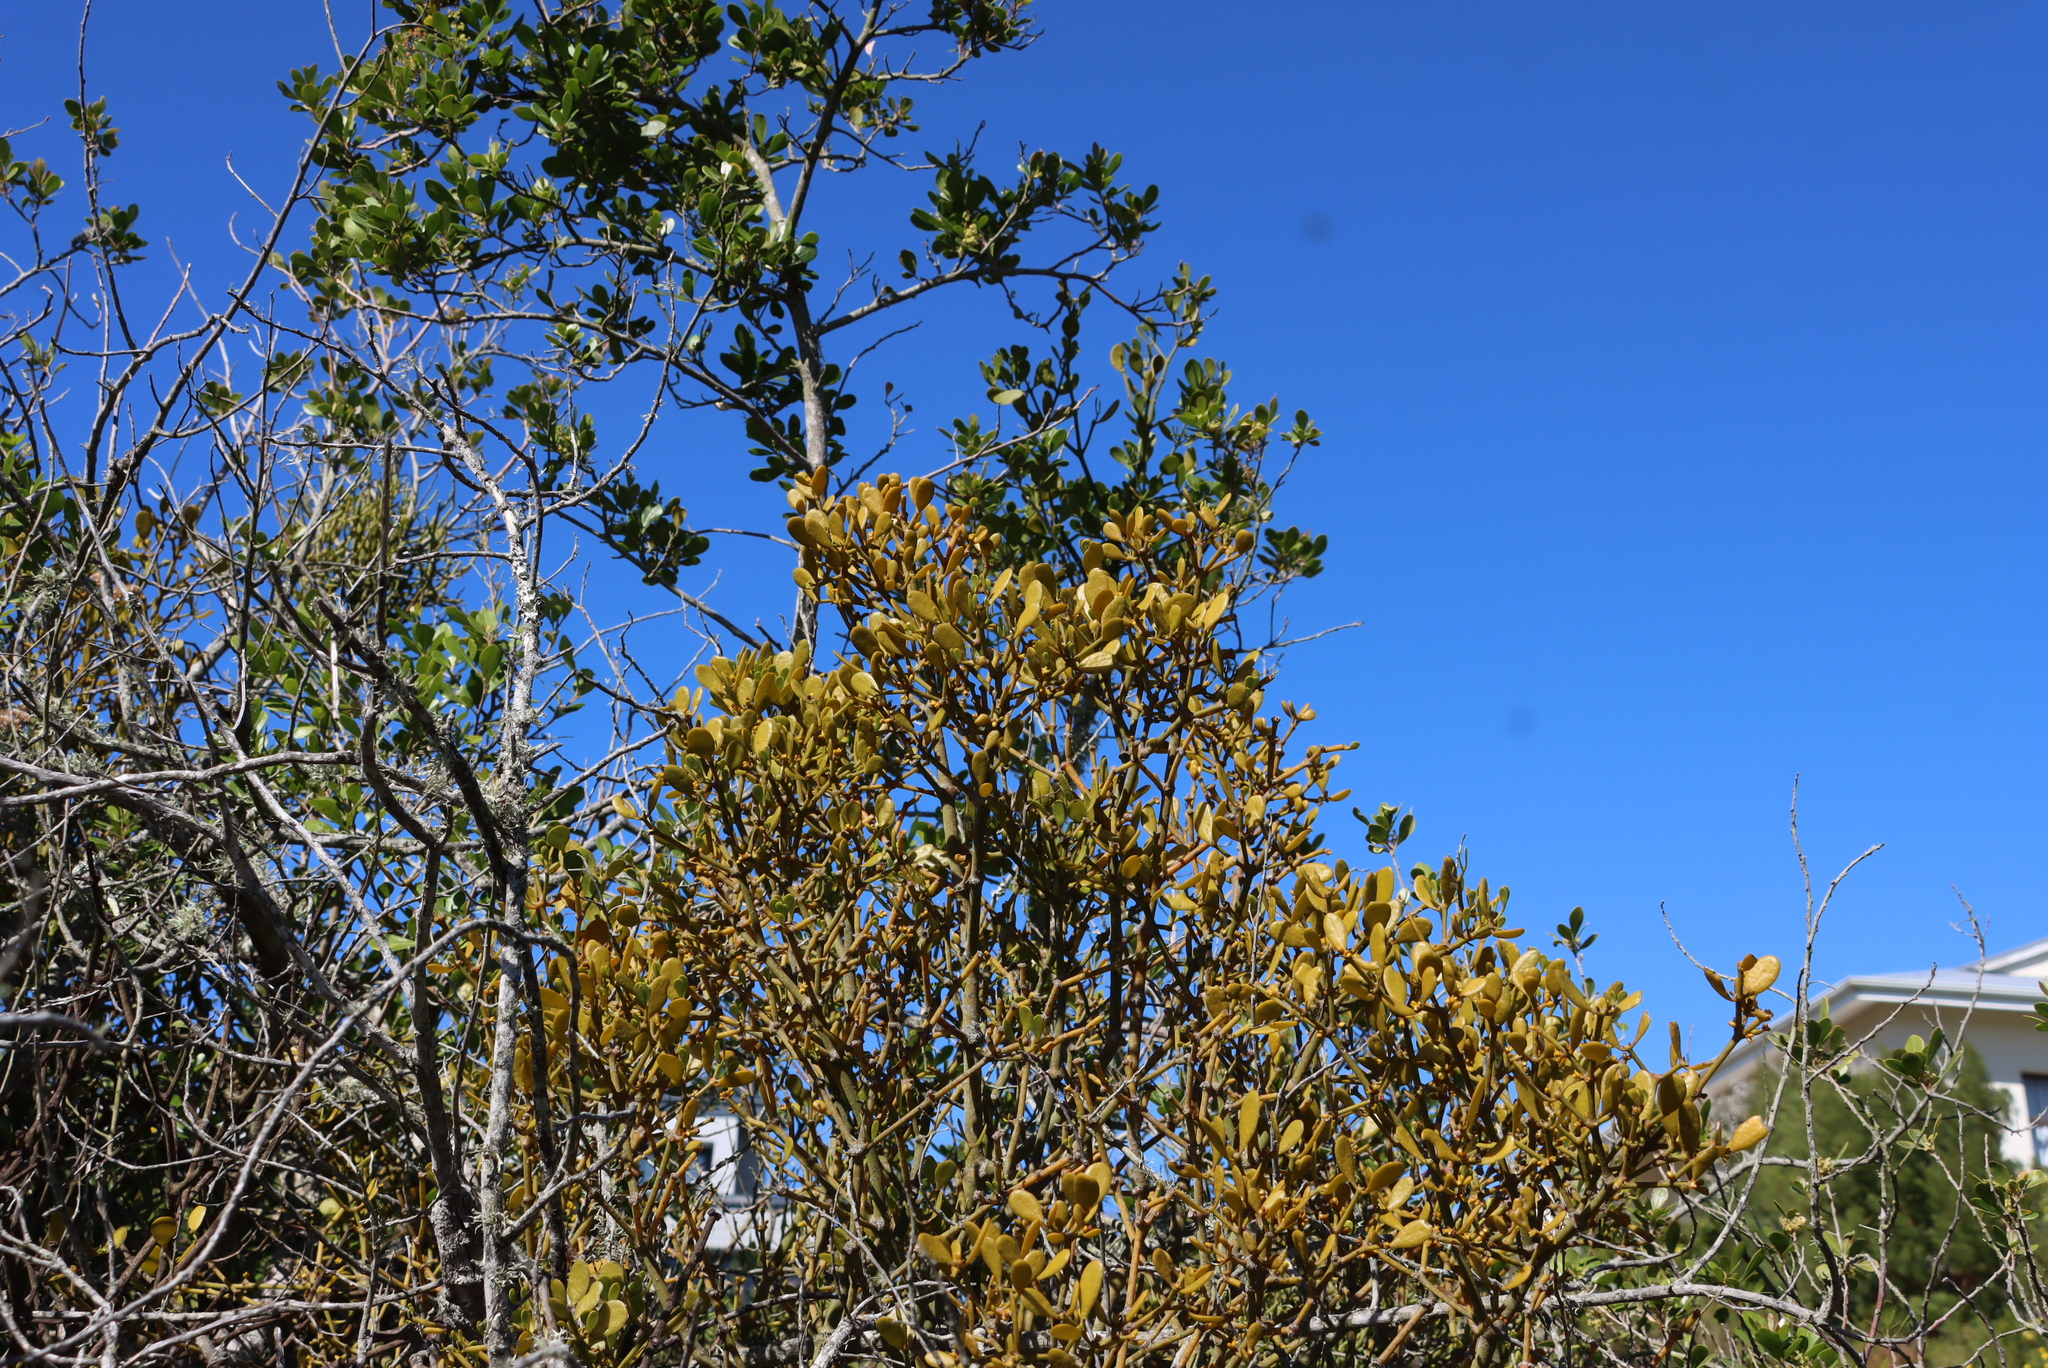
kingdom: Plantae
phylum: Tracheophyta
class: Magnoliopsida
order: Santalales
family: Viscaceae
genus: Viscum
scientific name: Viscum rotundifolium
